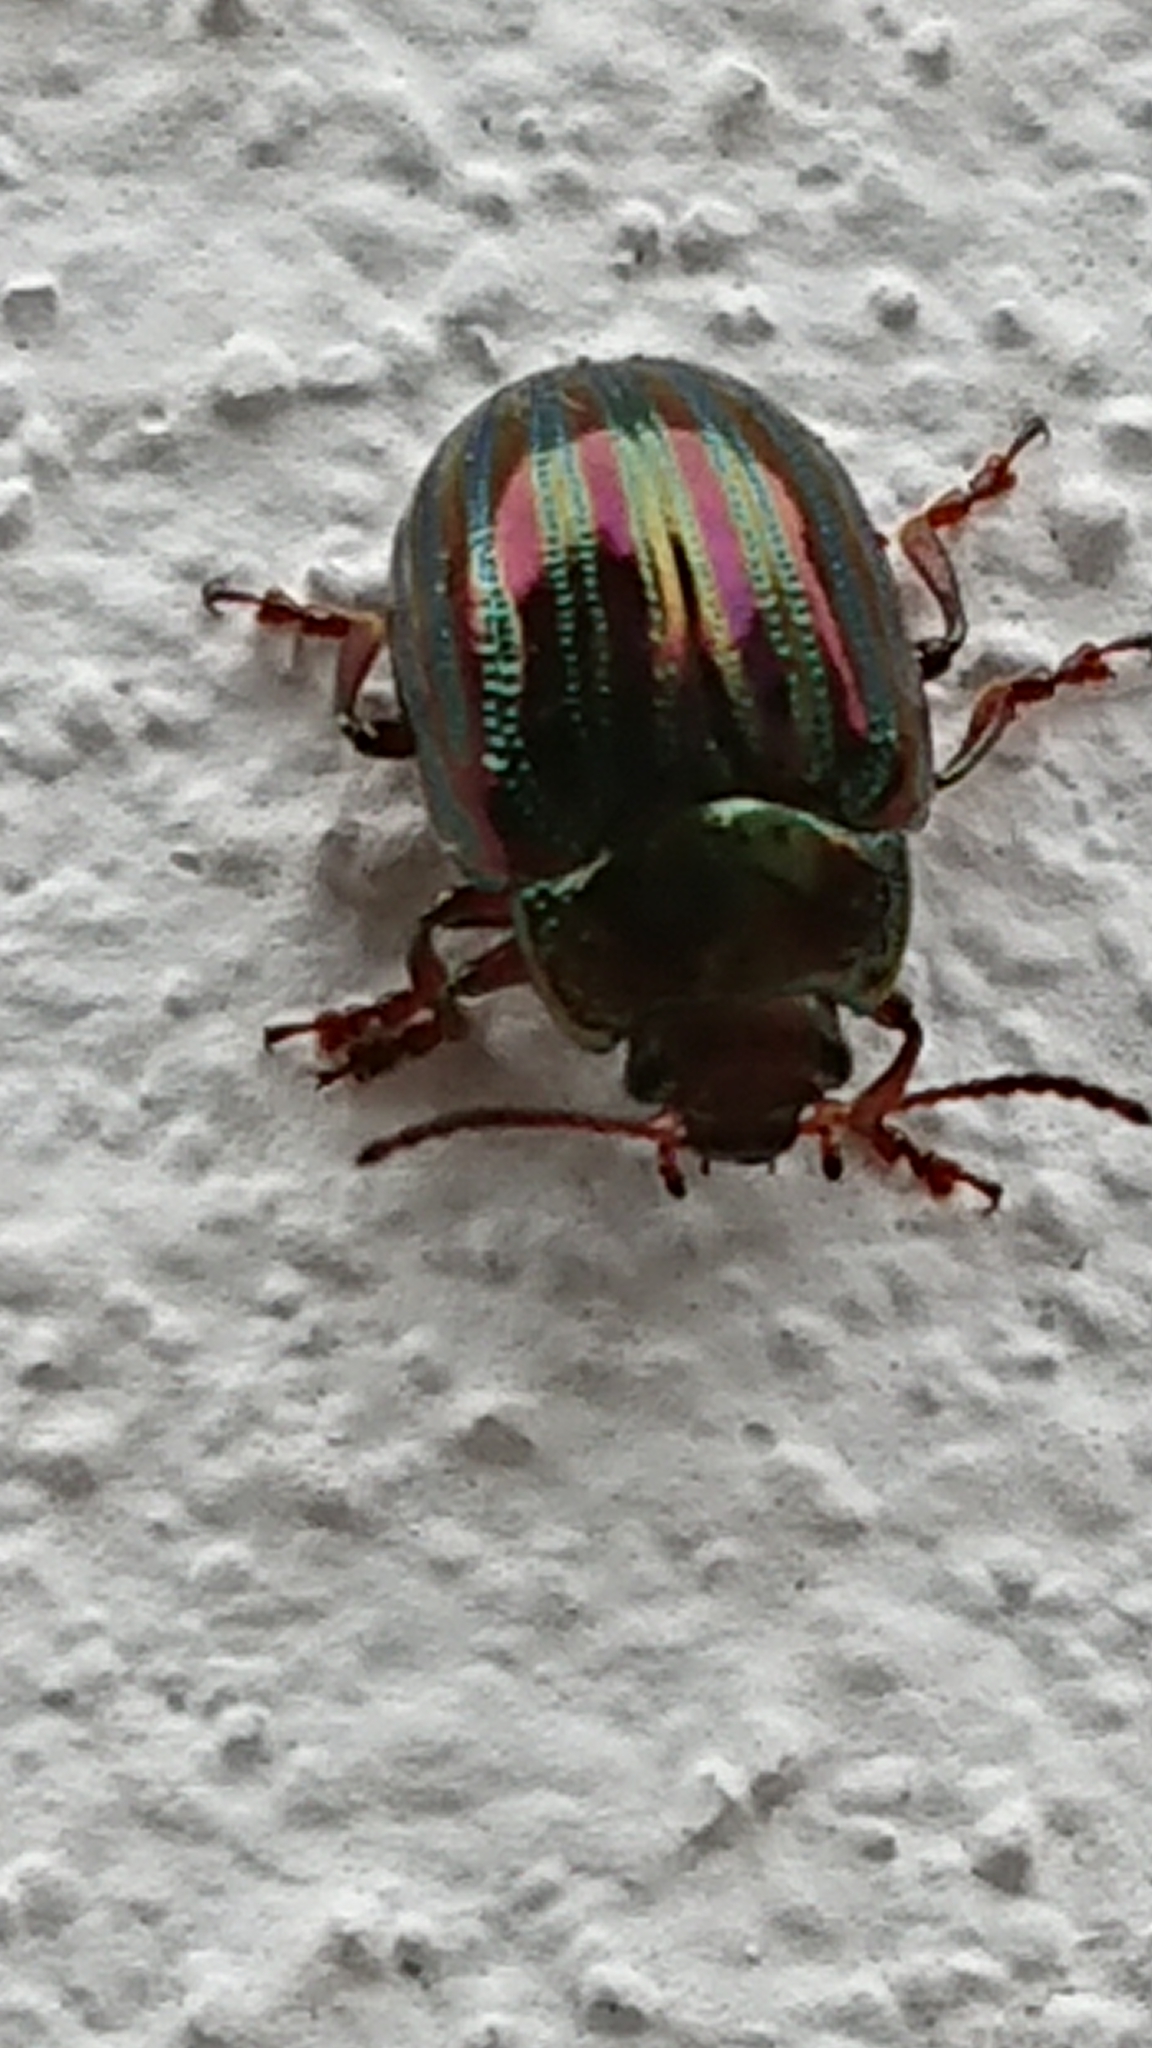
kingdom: Animalia
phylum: Arthropoda
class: Insecta
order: Coleoptera
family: Chrysomelidae
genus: Chrysolina
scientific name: Chrysolina americana
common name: Rosemary beetle
